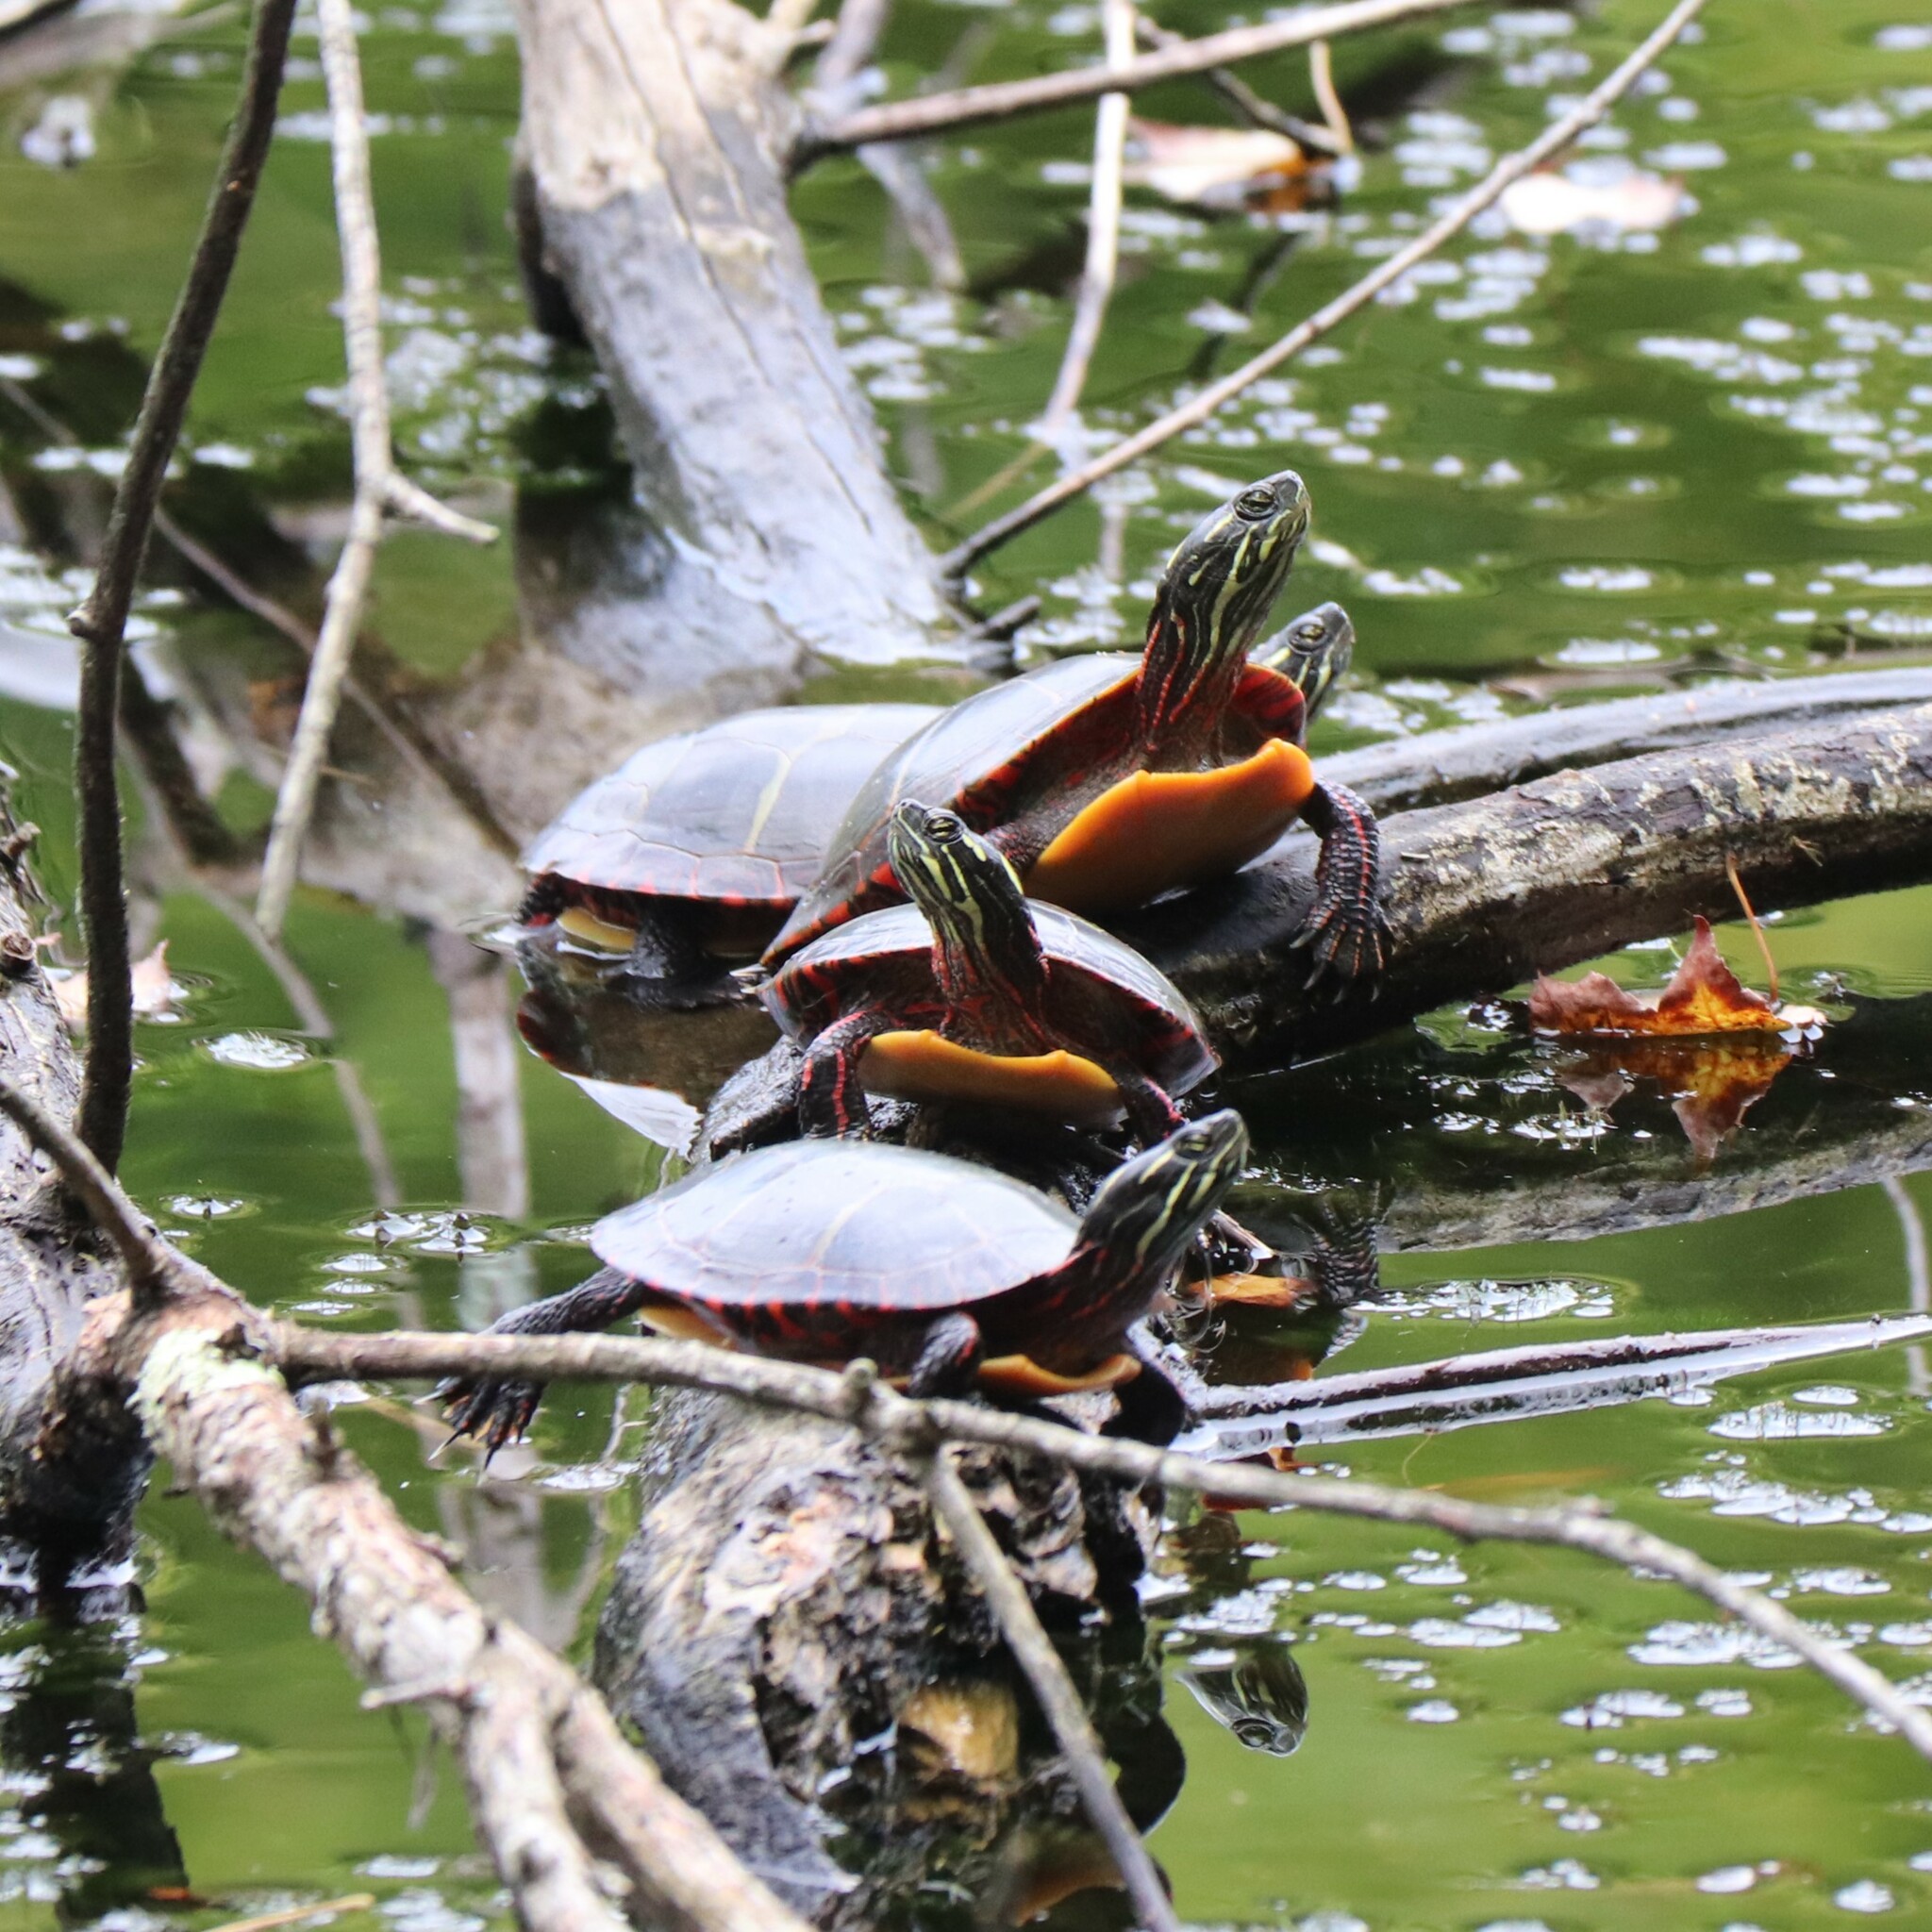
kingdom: Animalia
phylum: Chordata
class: Testudines
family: Emydidae
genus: Chrysemys
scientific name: Chrysemys picta
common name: Painted turtle
